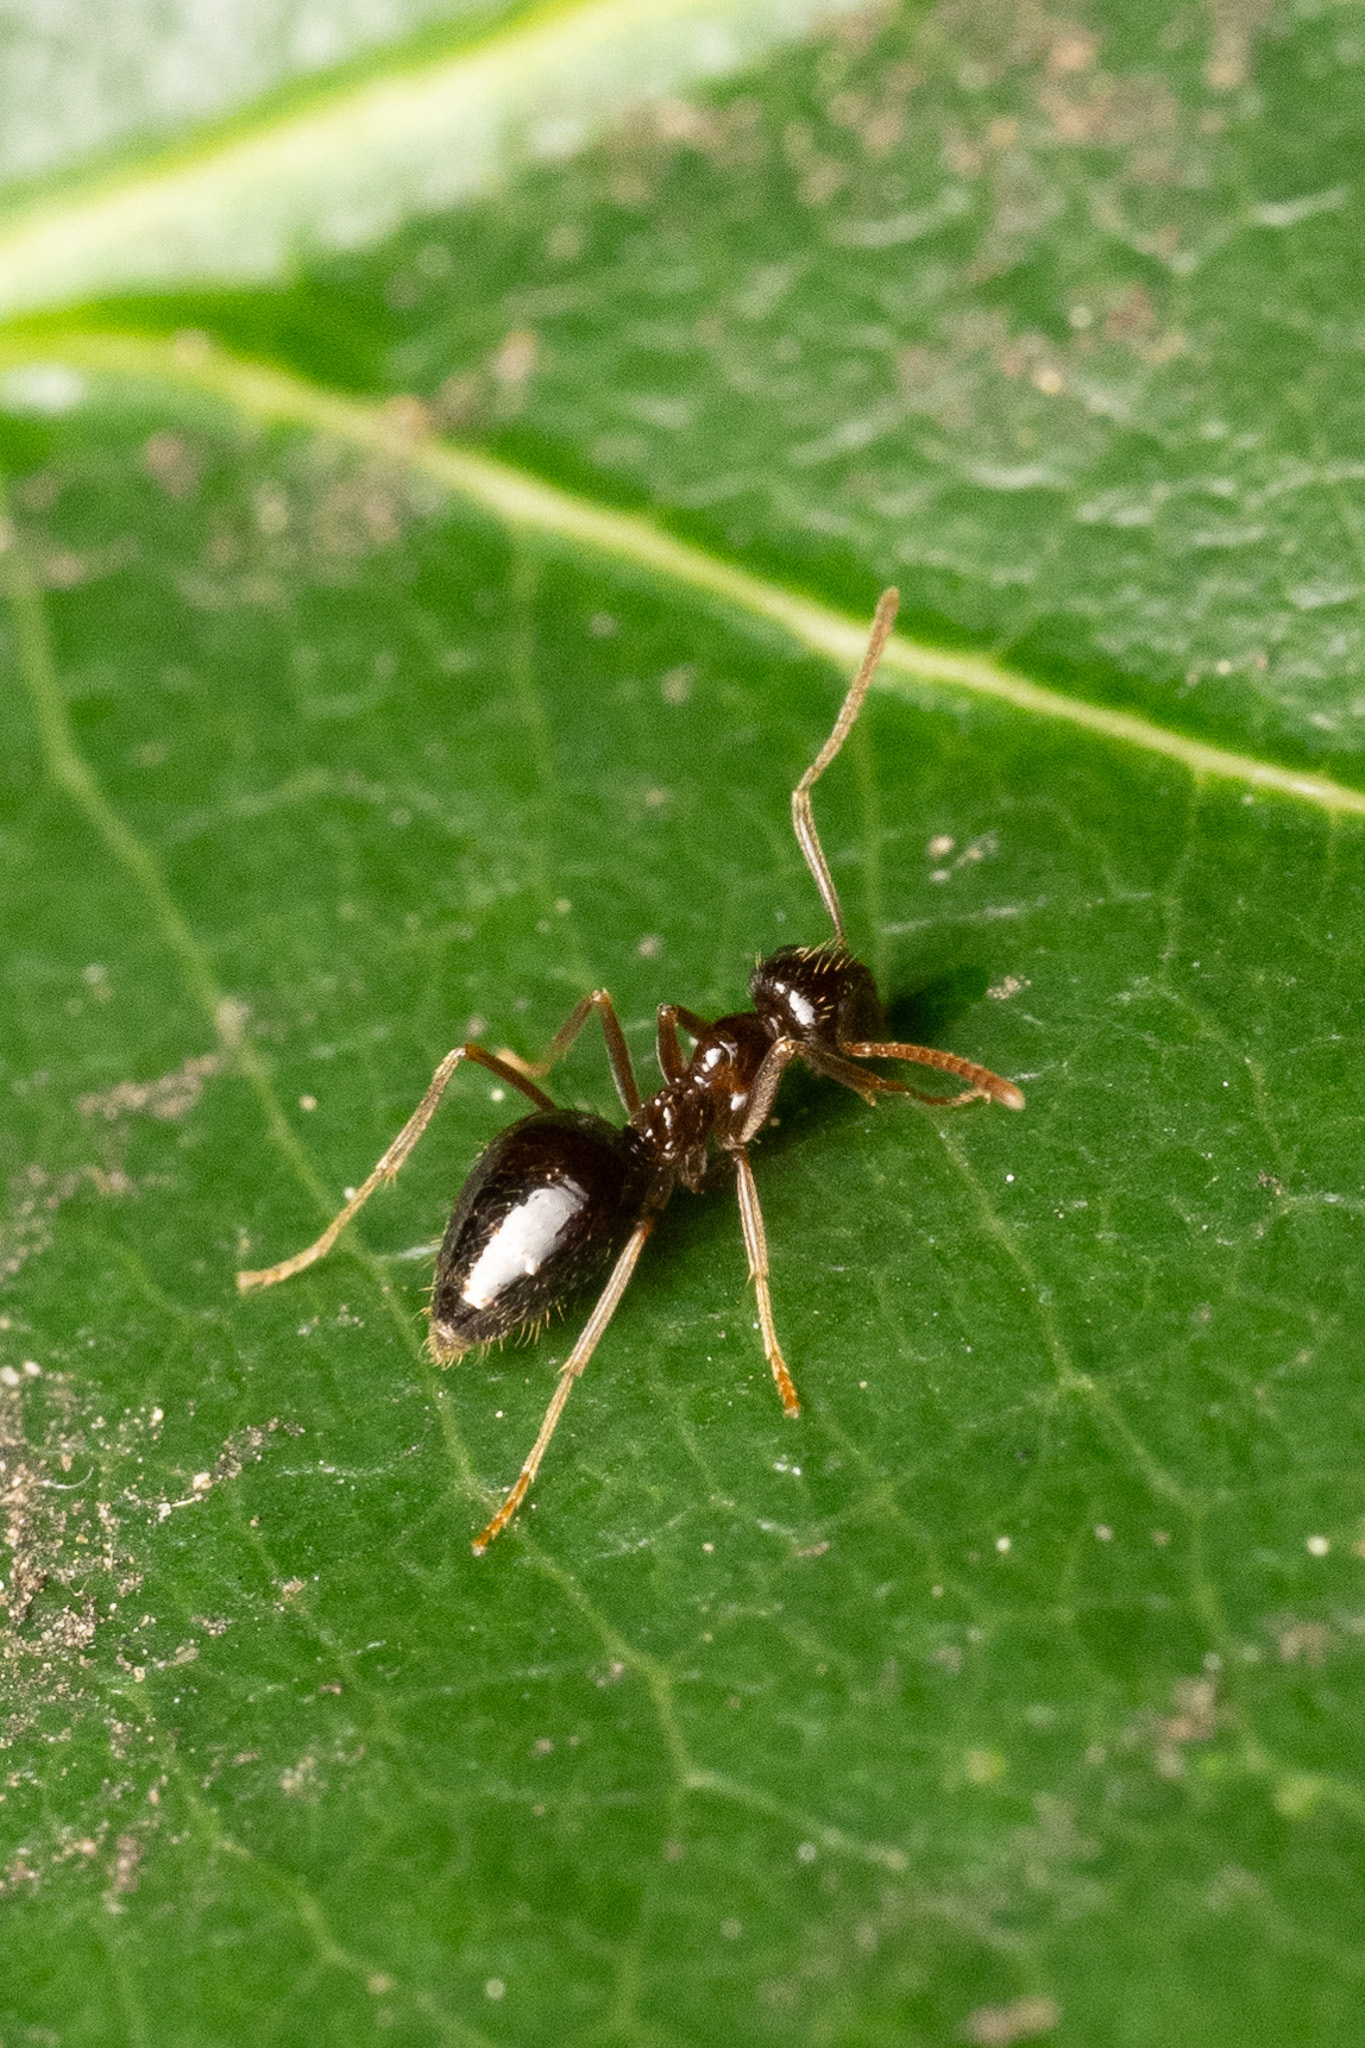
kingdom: Animalia
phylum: Arthropoda
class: Insecta
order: Hymenoptera
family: Formicidae
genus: Prenolepis
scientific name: Prenolepis imparis
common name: Small honey ant
